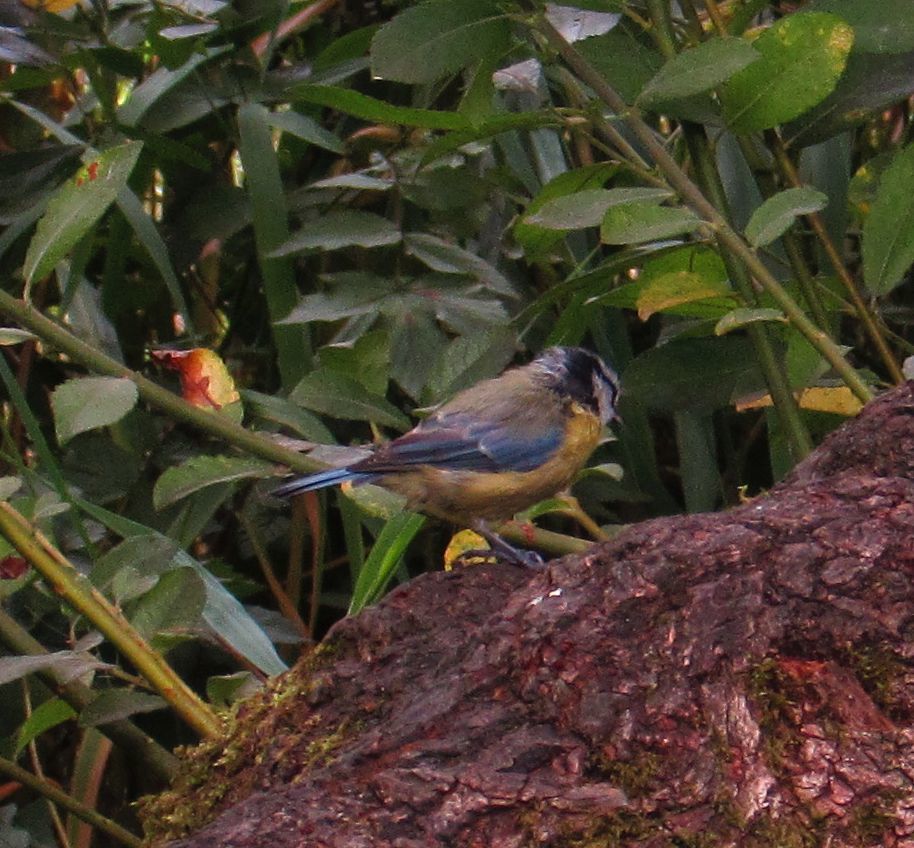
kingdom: Animalia
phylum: Chordata
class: Aves
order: Passeriformes
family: Paridae
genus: Cyanistes
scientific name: Cyanistes caeruleus
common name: Eurasian blue tit
